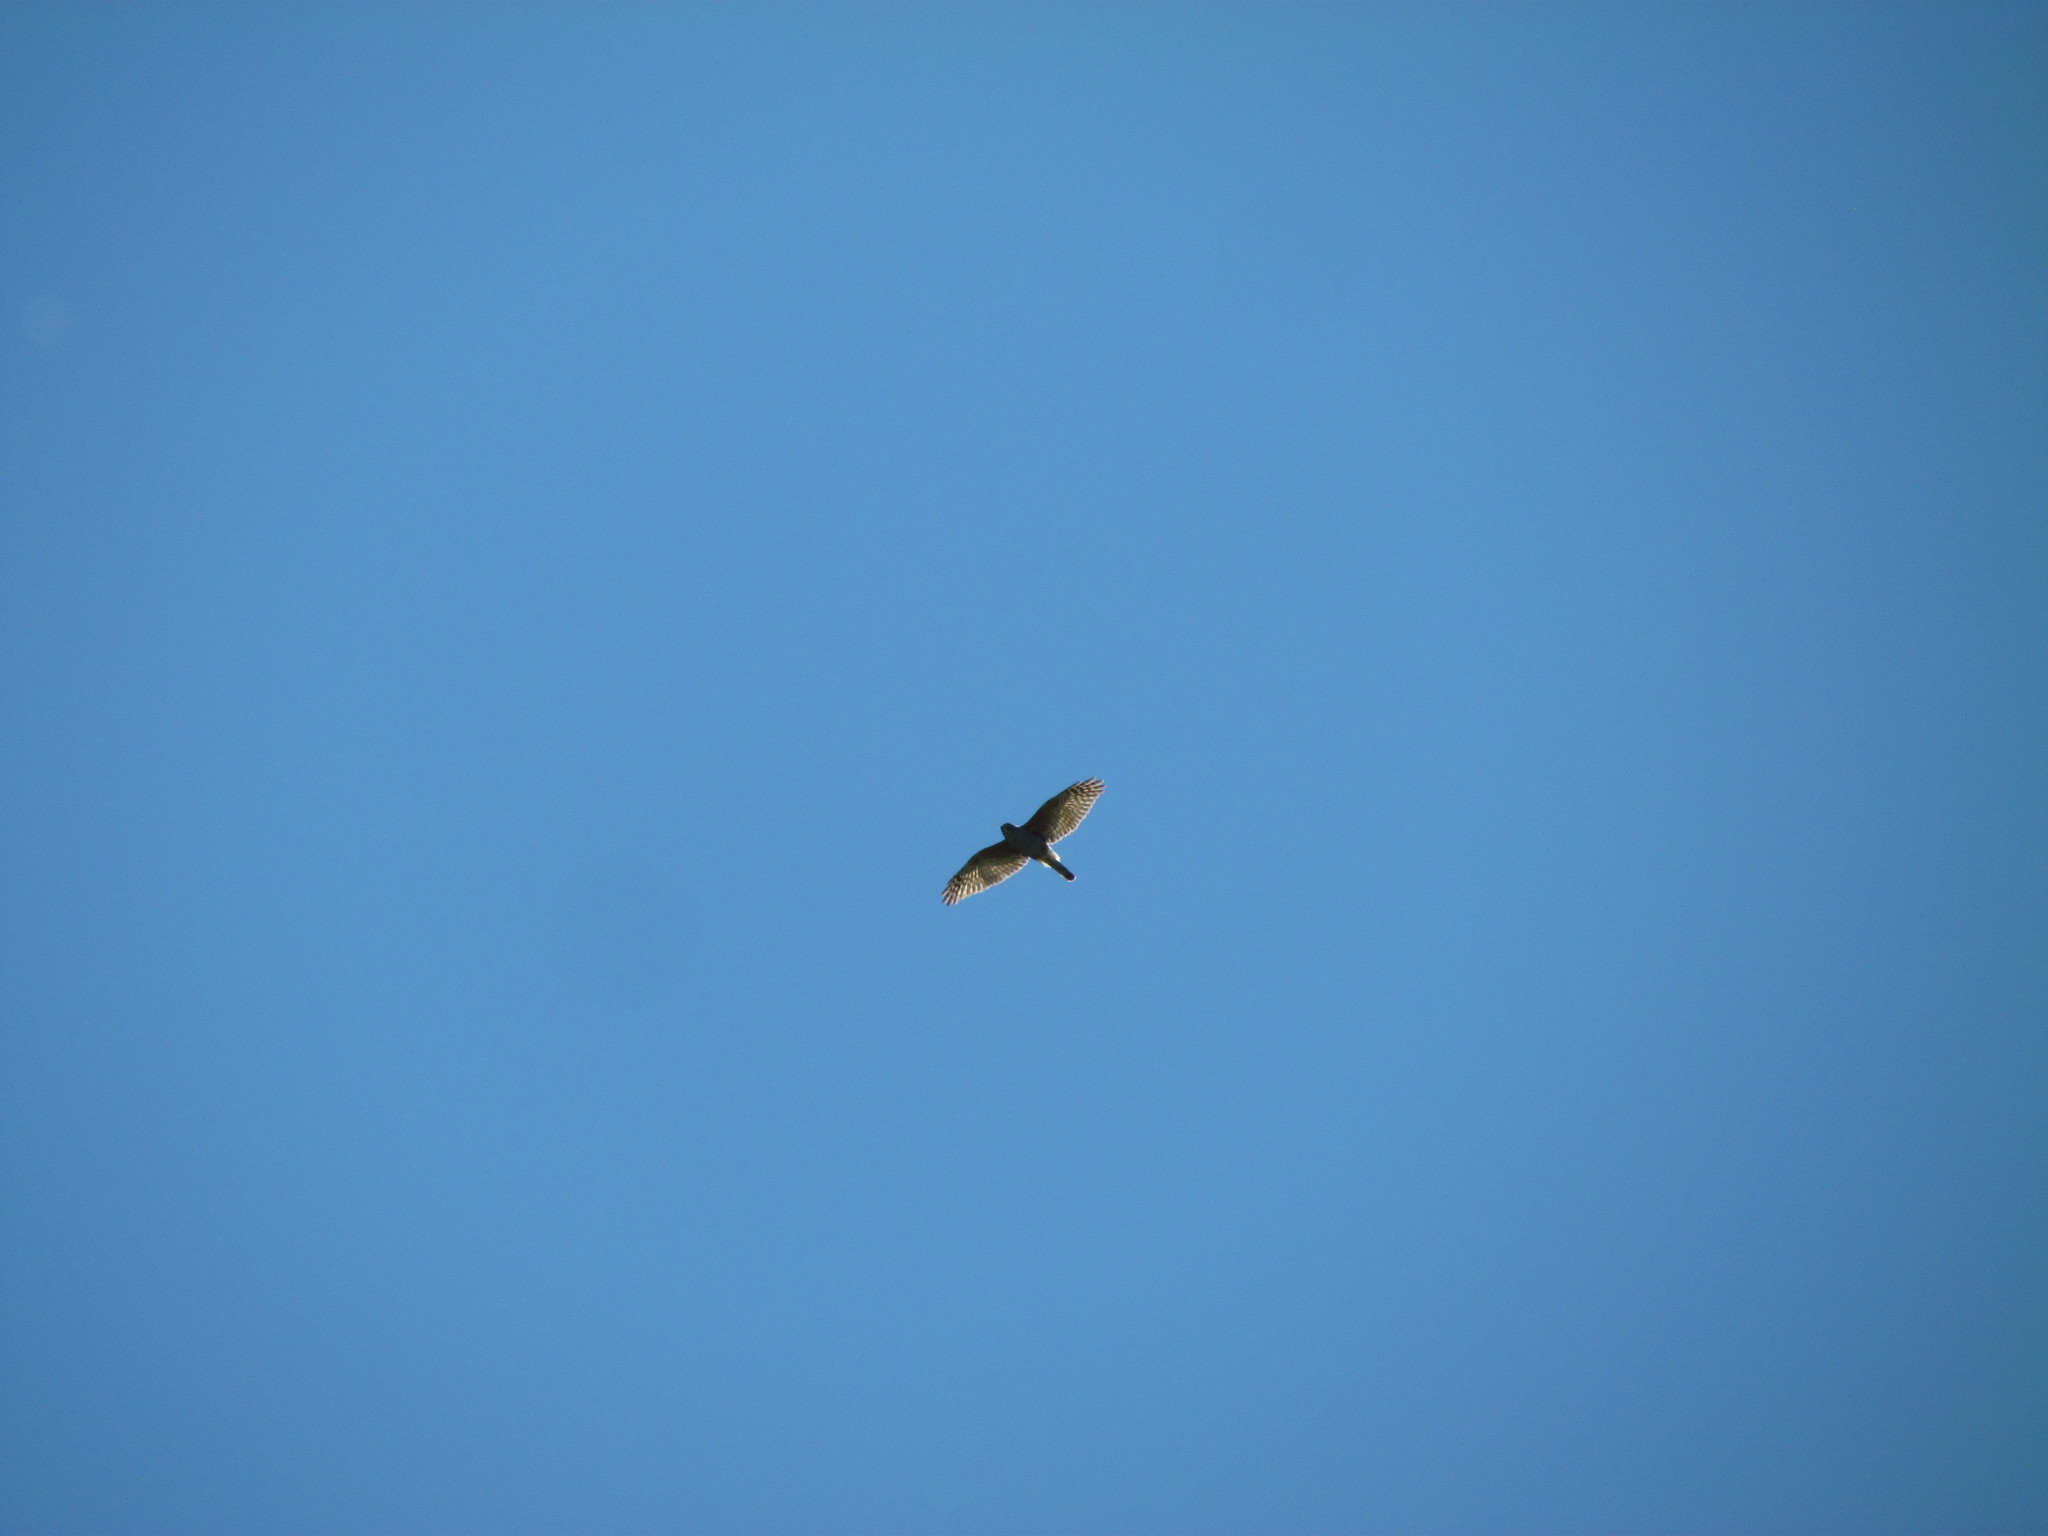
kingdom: Animalia
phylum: Chordata
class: Aves
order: Accipitriformes
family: Accipitridae
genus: Harpagus
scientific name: Harpagus diodon
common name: Rufous-thighed kite
